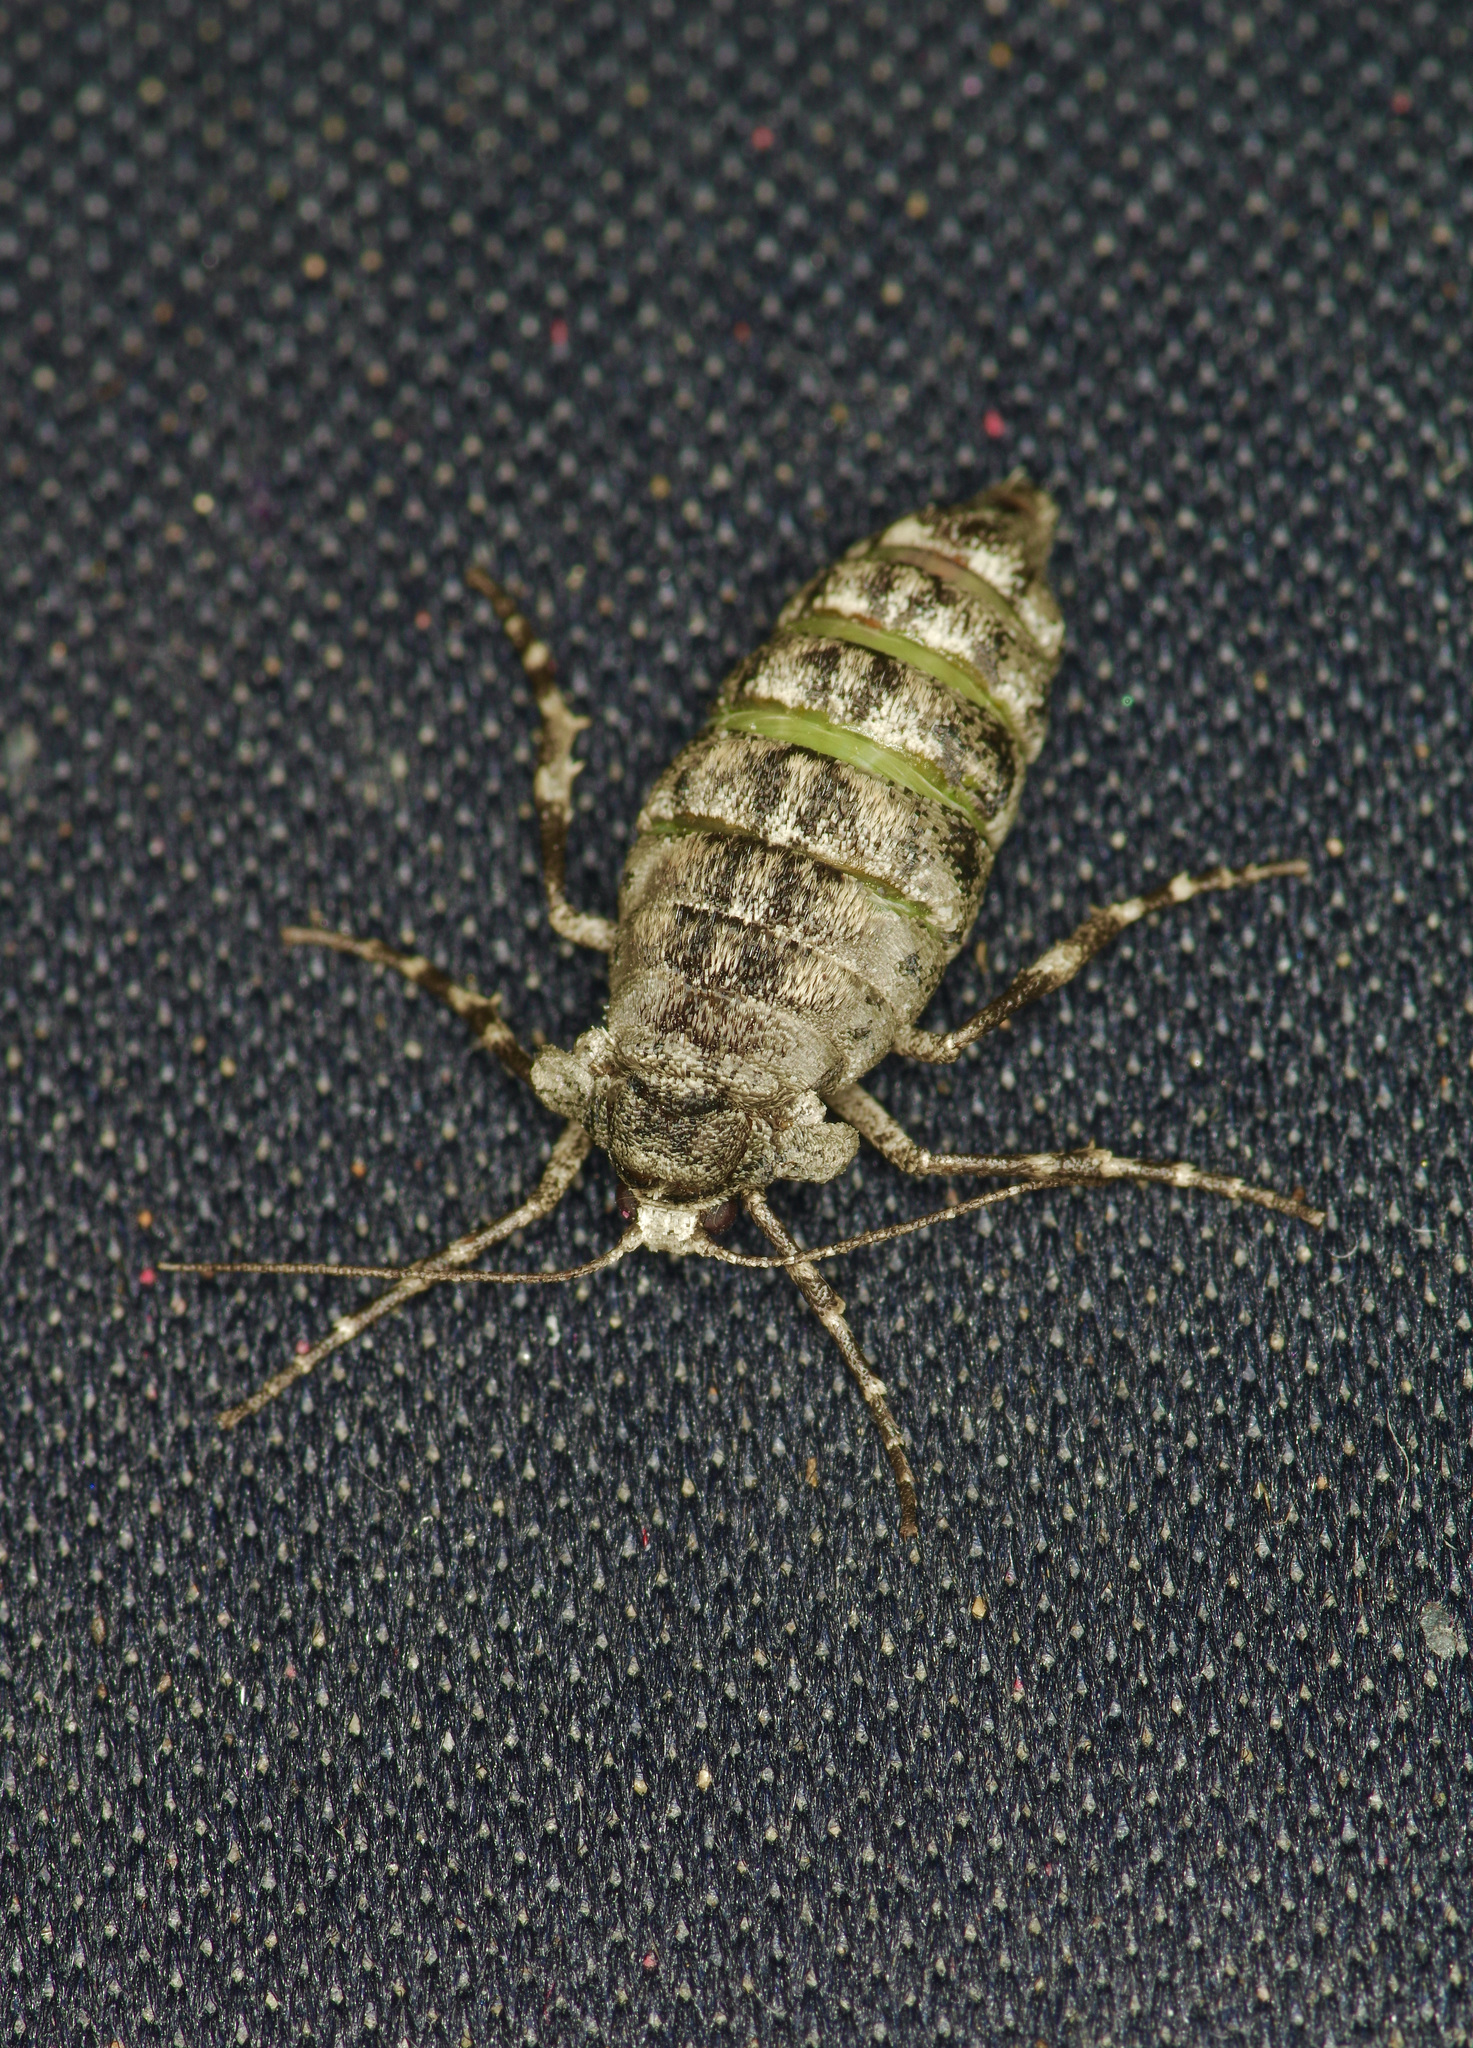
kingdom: Animalia
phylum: Arthropoda
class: Insecta
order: Lepidoptera
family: Geometridae
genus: Phigalia
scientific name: Phigalia strigataria
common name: Small phigalia
